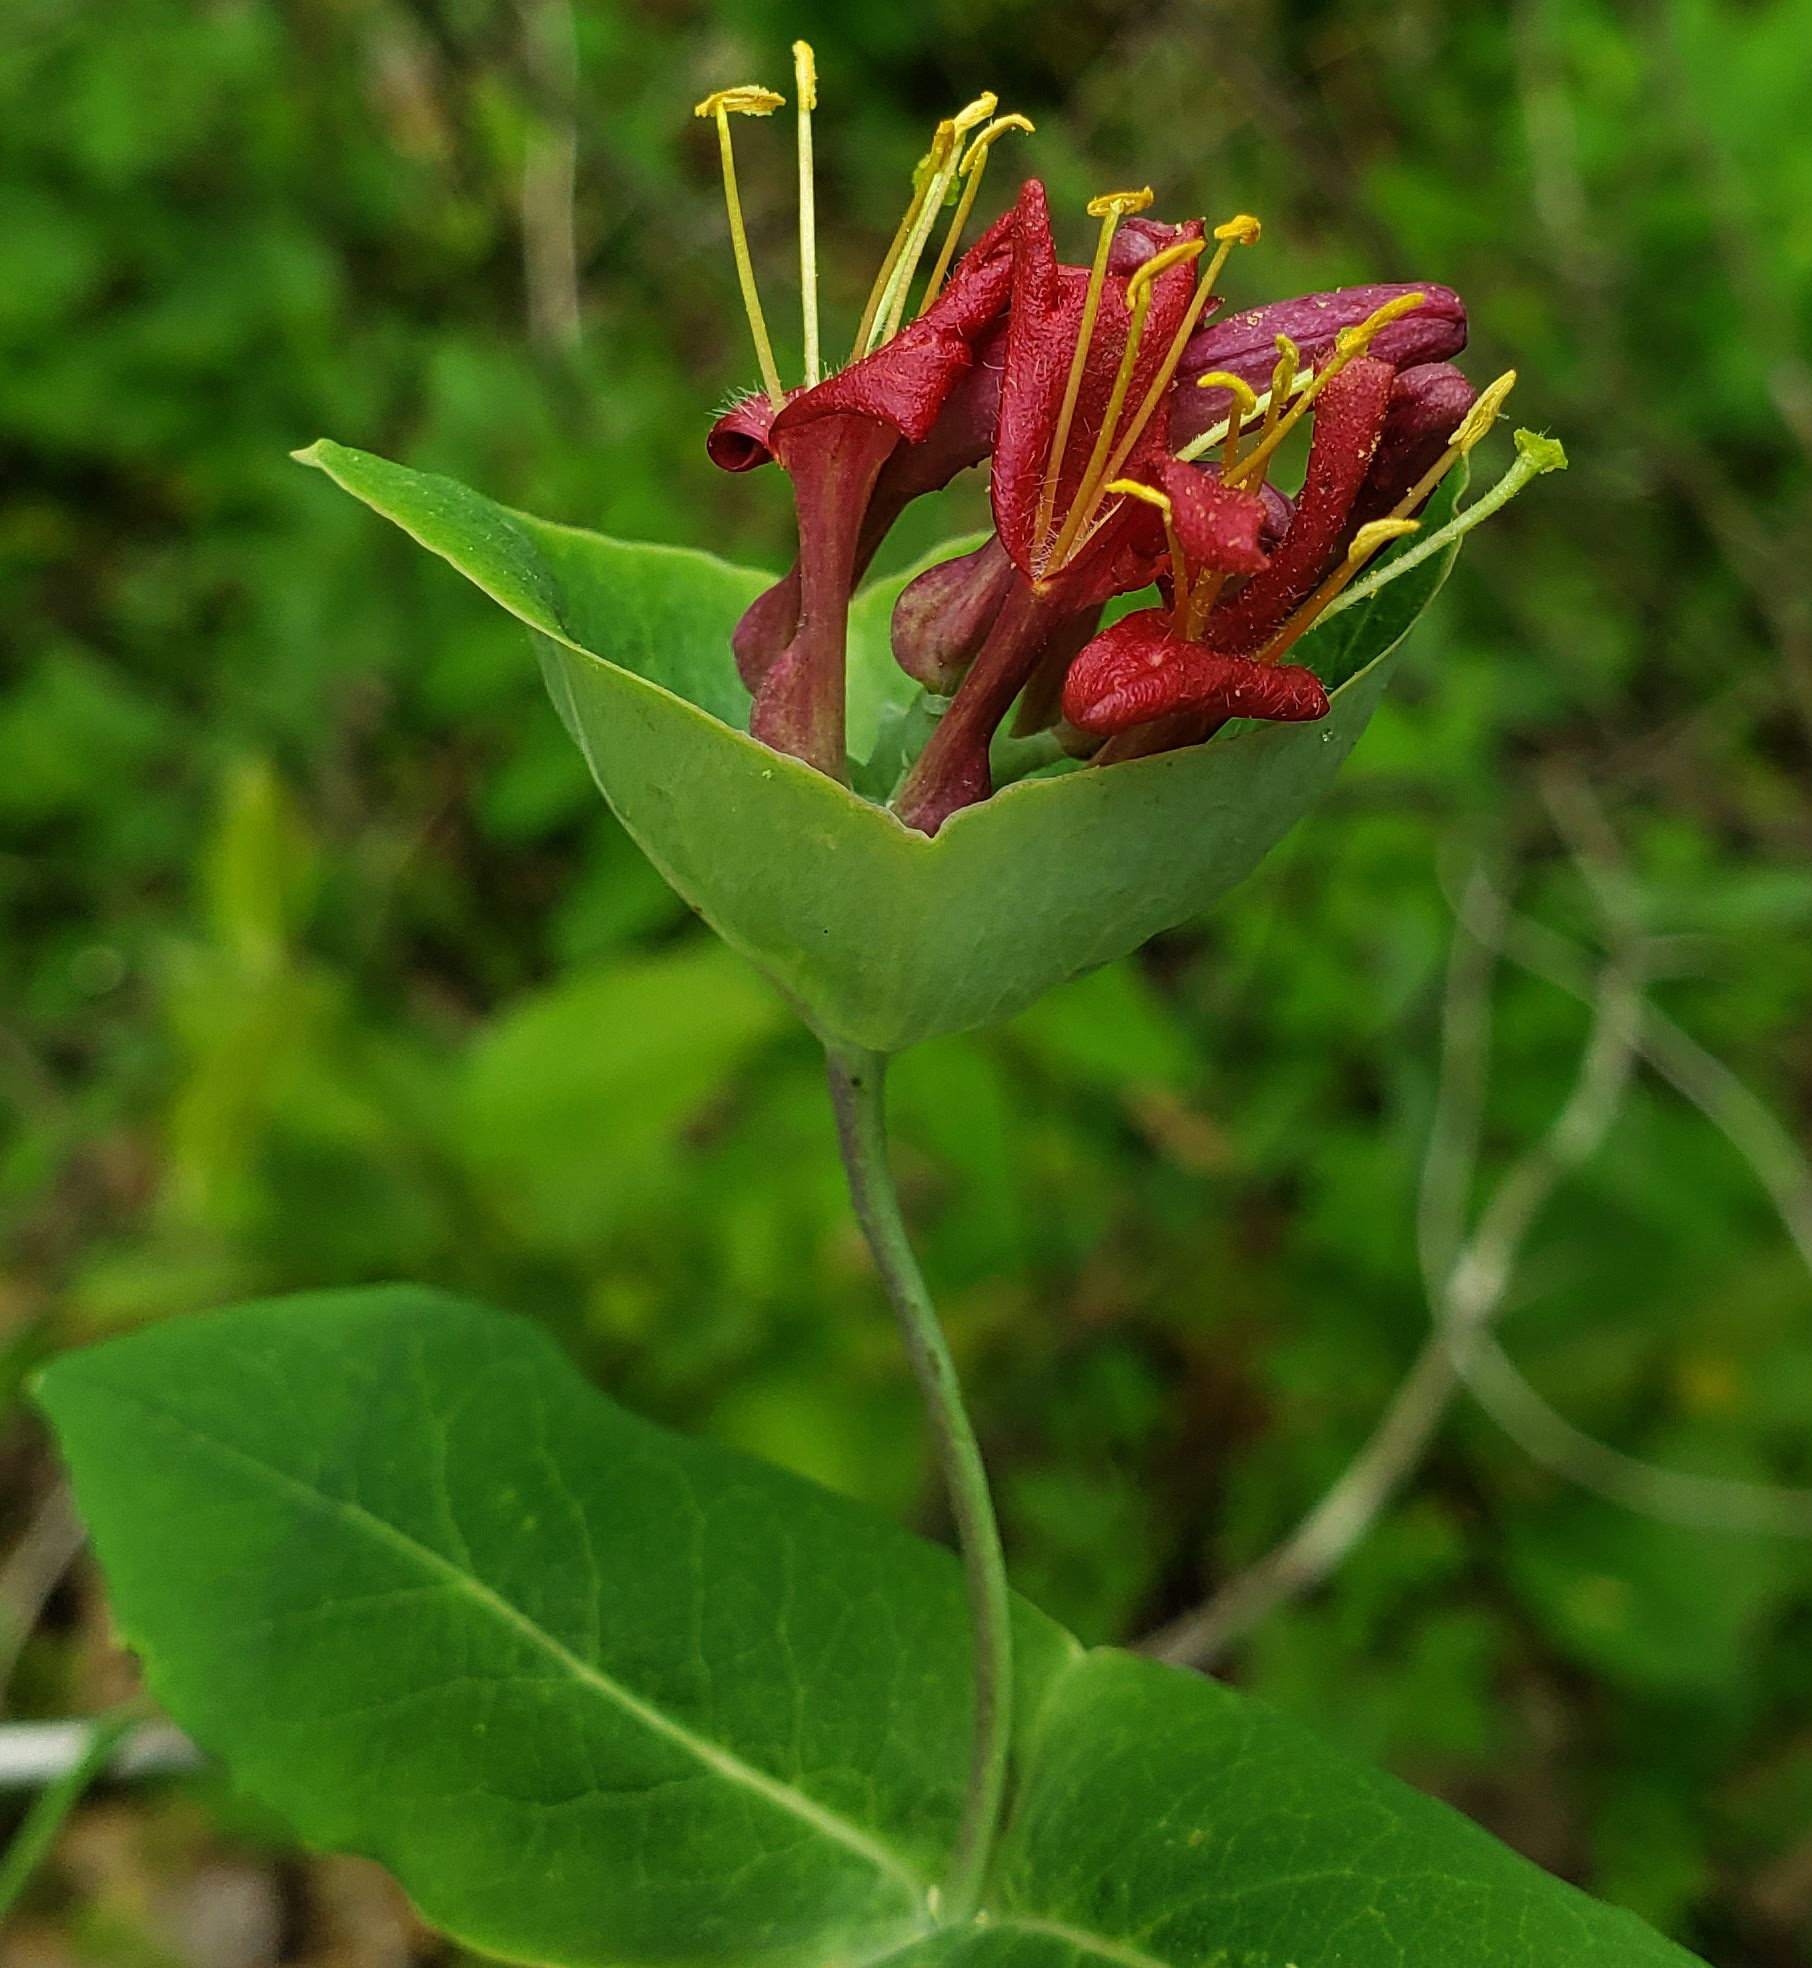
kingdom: Plantae
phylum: Tracheophyta
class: Magnoliopsida
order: Dipsacales
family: Caprifoliaceae
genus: Lonicera
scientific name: Lonicera dioica
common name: Limber honeysuckle
